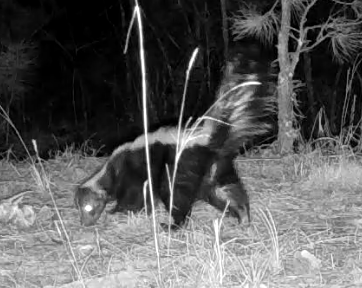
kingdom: Animalia
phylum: Chordata
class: Mammalia
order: Carnivora
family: Mephitidae
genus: Mephitis
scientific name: Mephitis mephitis
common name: Striped skunk
